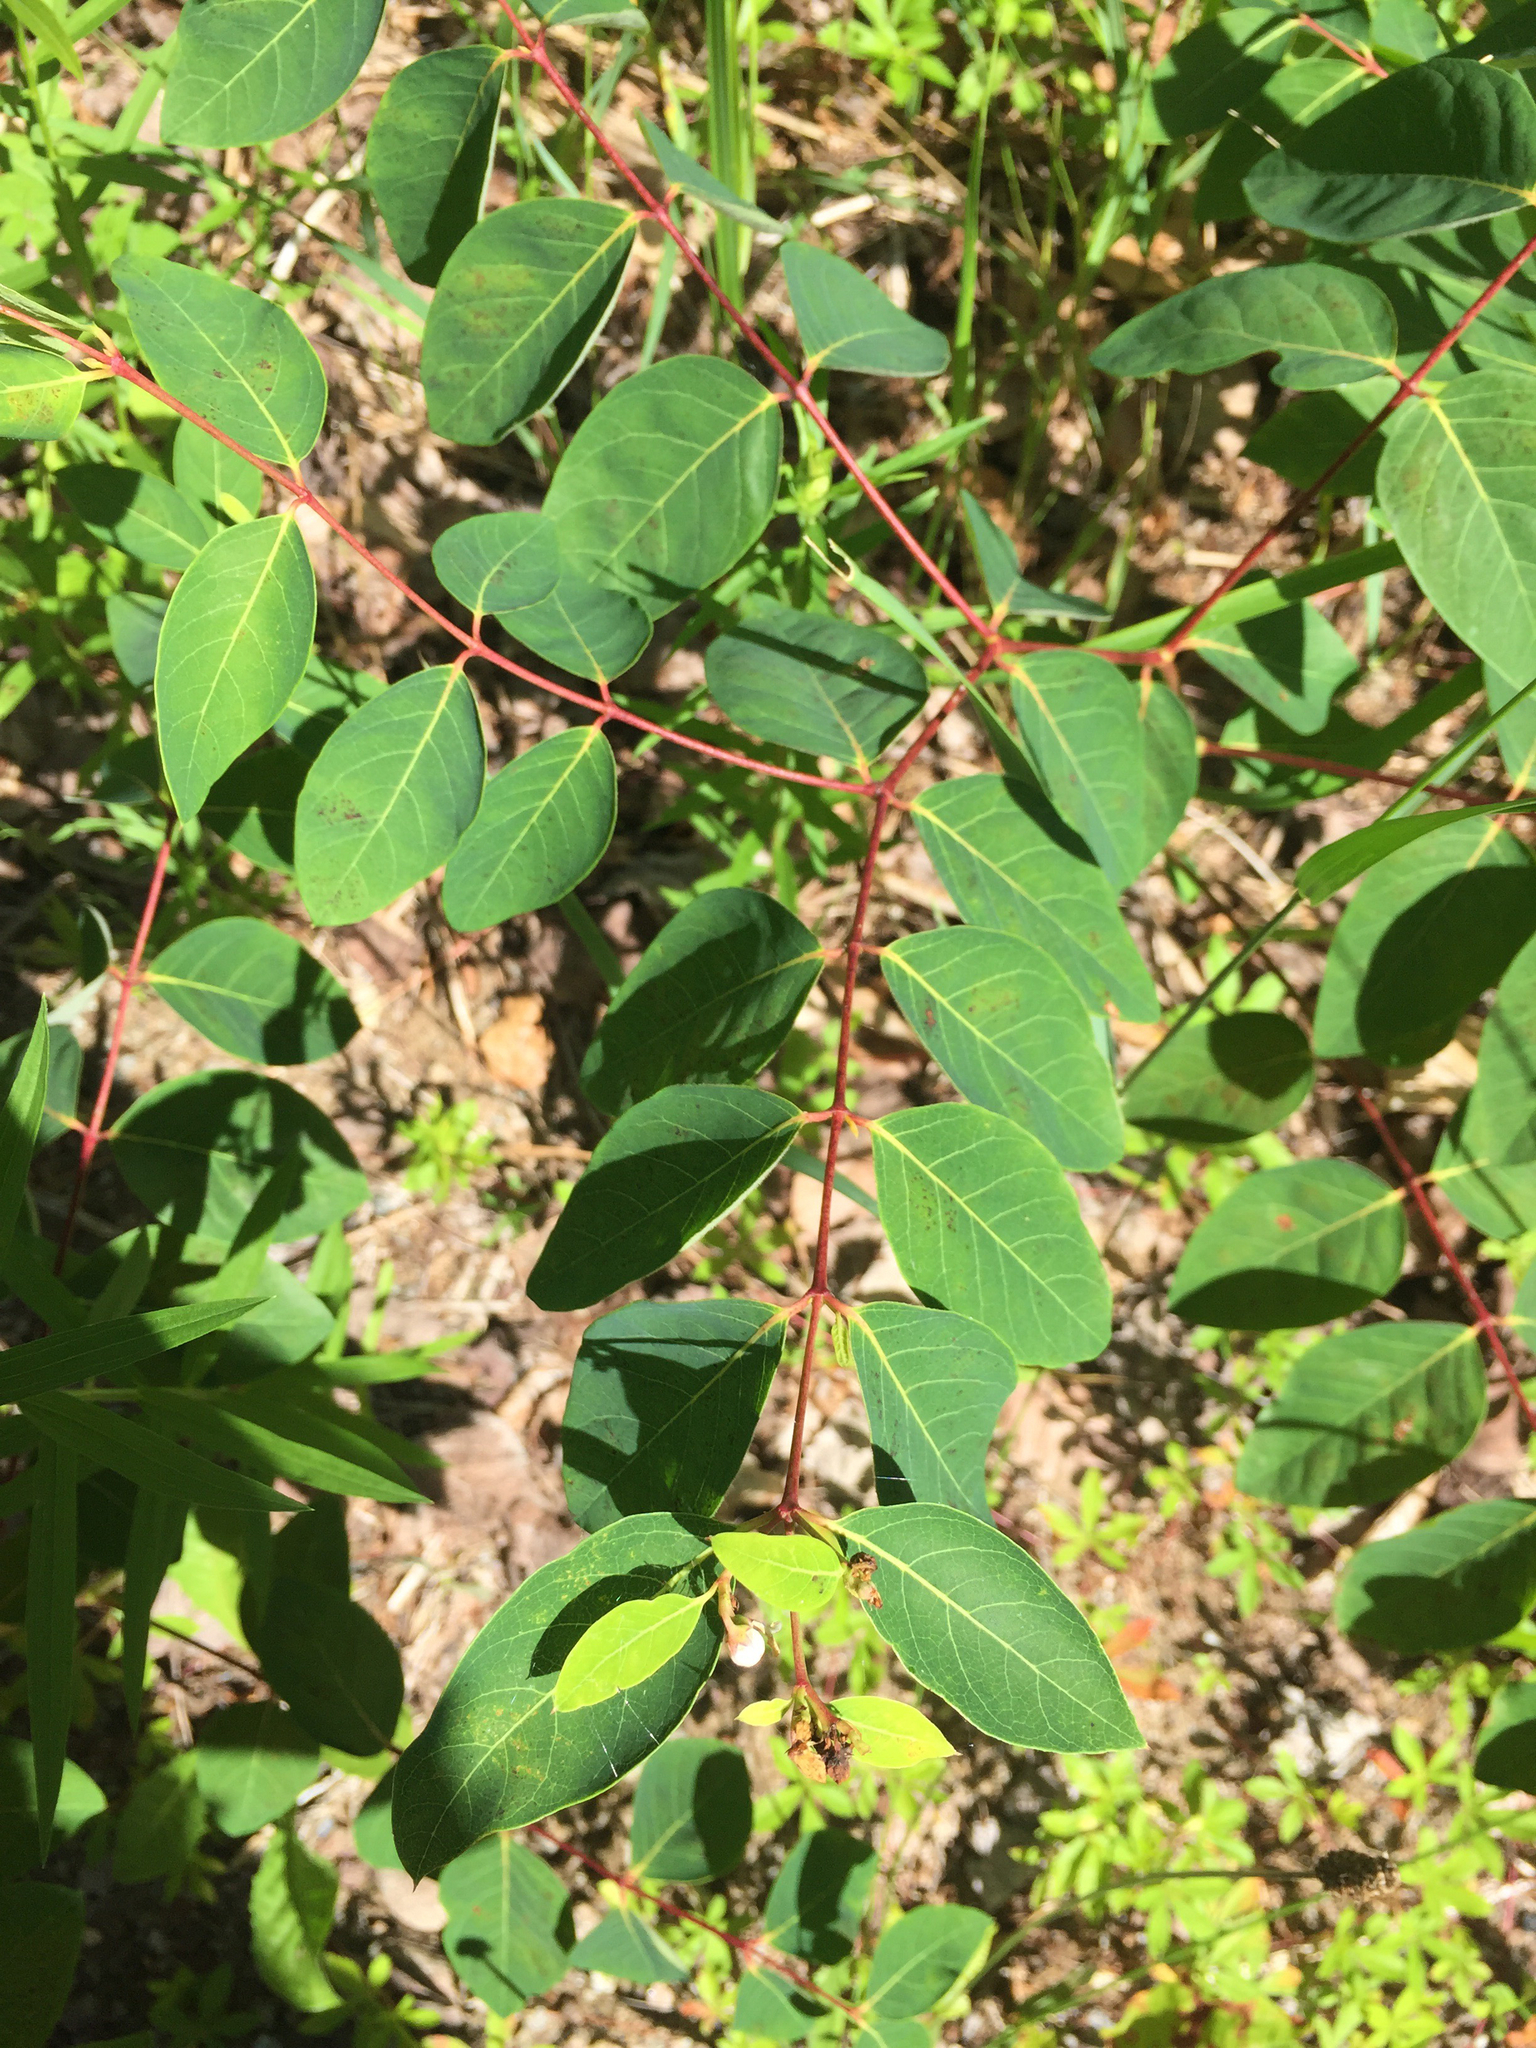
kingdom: Plantae
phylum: Tracheophyta
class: Magnoliopsida
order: Gentianales
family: Apocynaceae
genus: Apocynum
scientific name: Apocynum androsaemifolium
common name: Spreading dogbane
